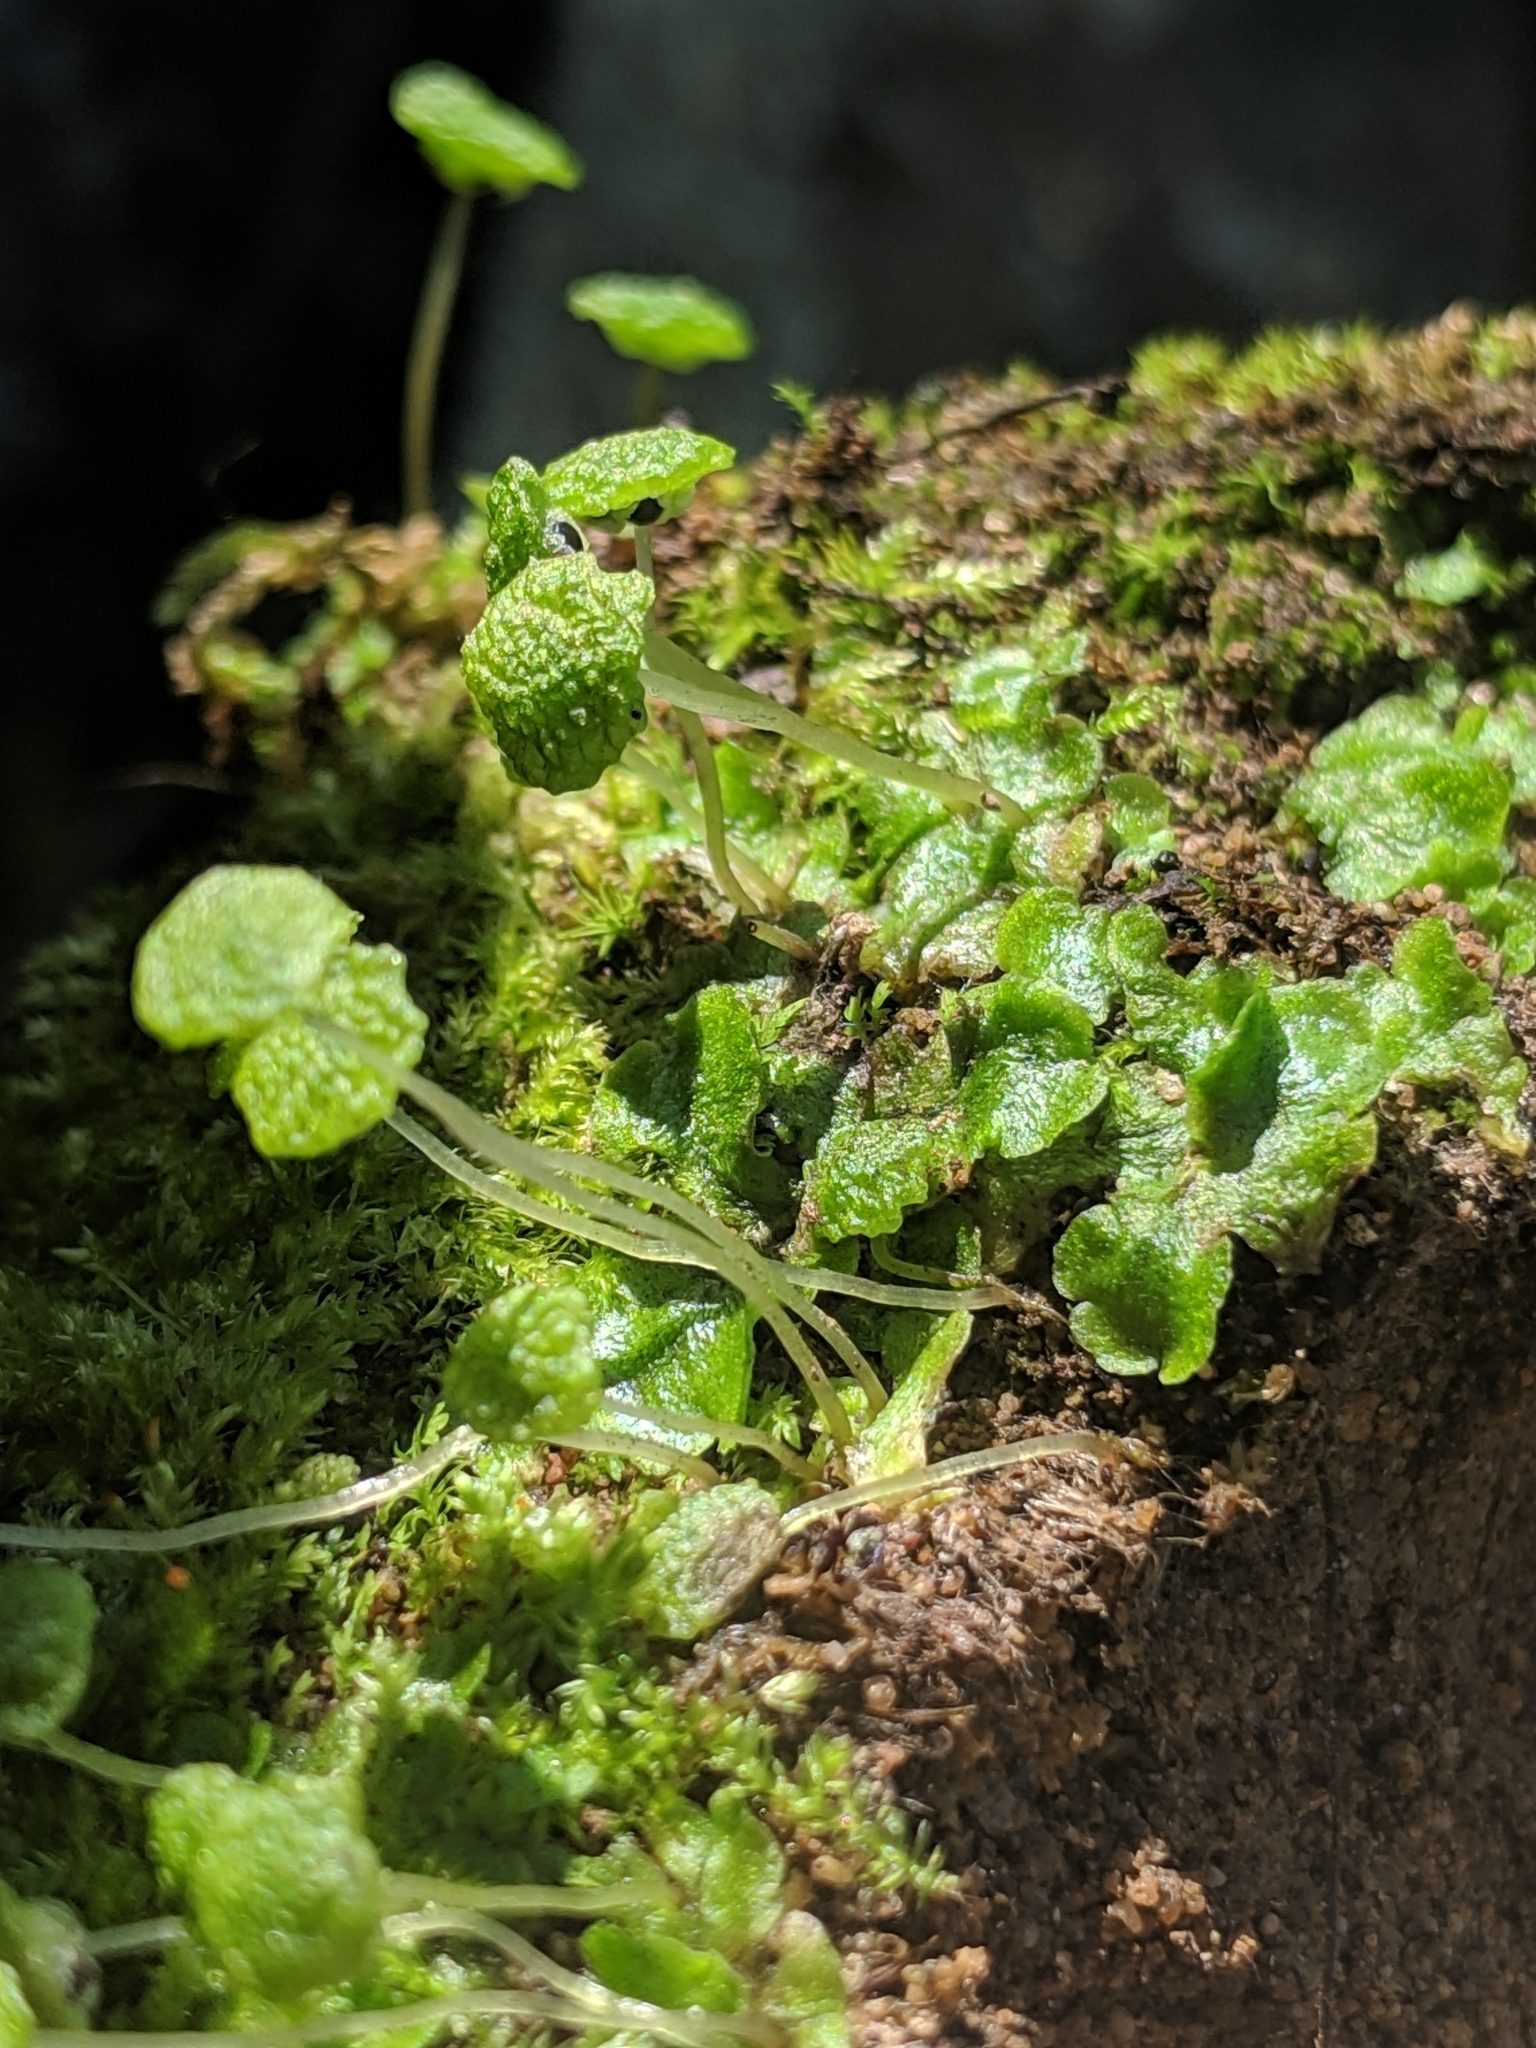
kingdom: Plantae
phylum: Marchantiophyta
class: Marchantiopsida
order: Marchantiales
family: Aytoniaceae
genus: Cryptomitrium
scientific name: Cryptomitrium tenerum
